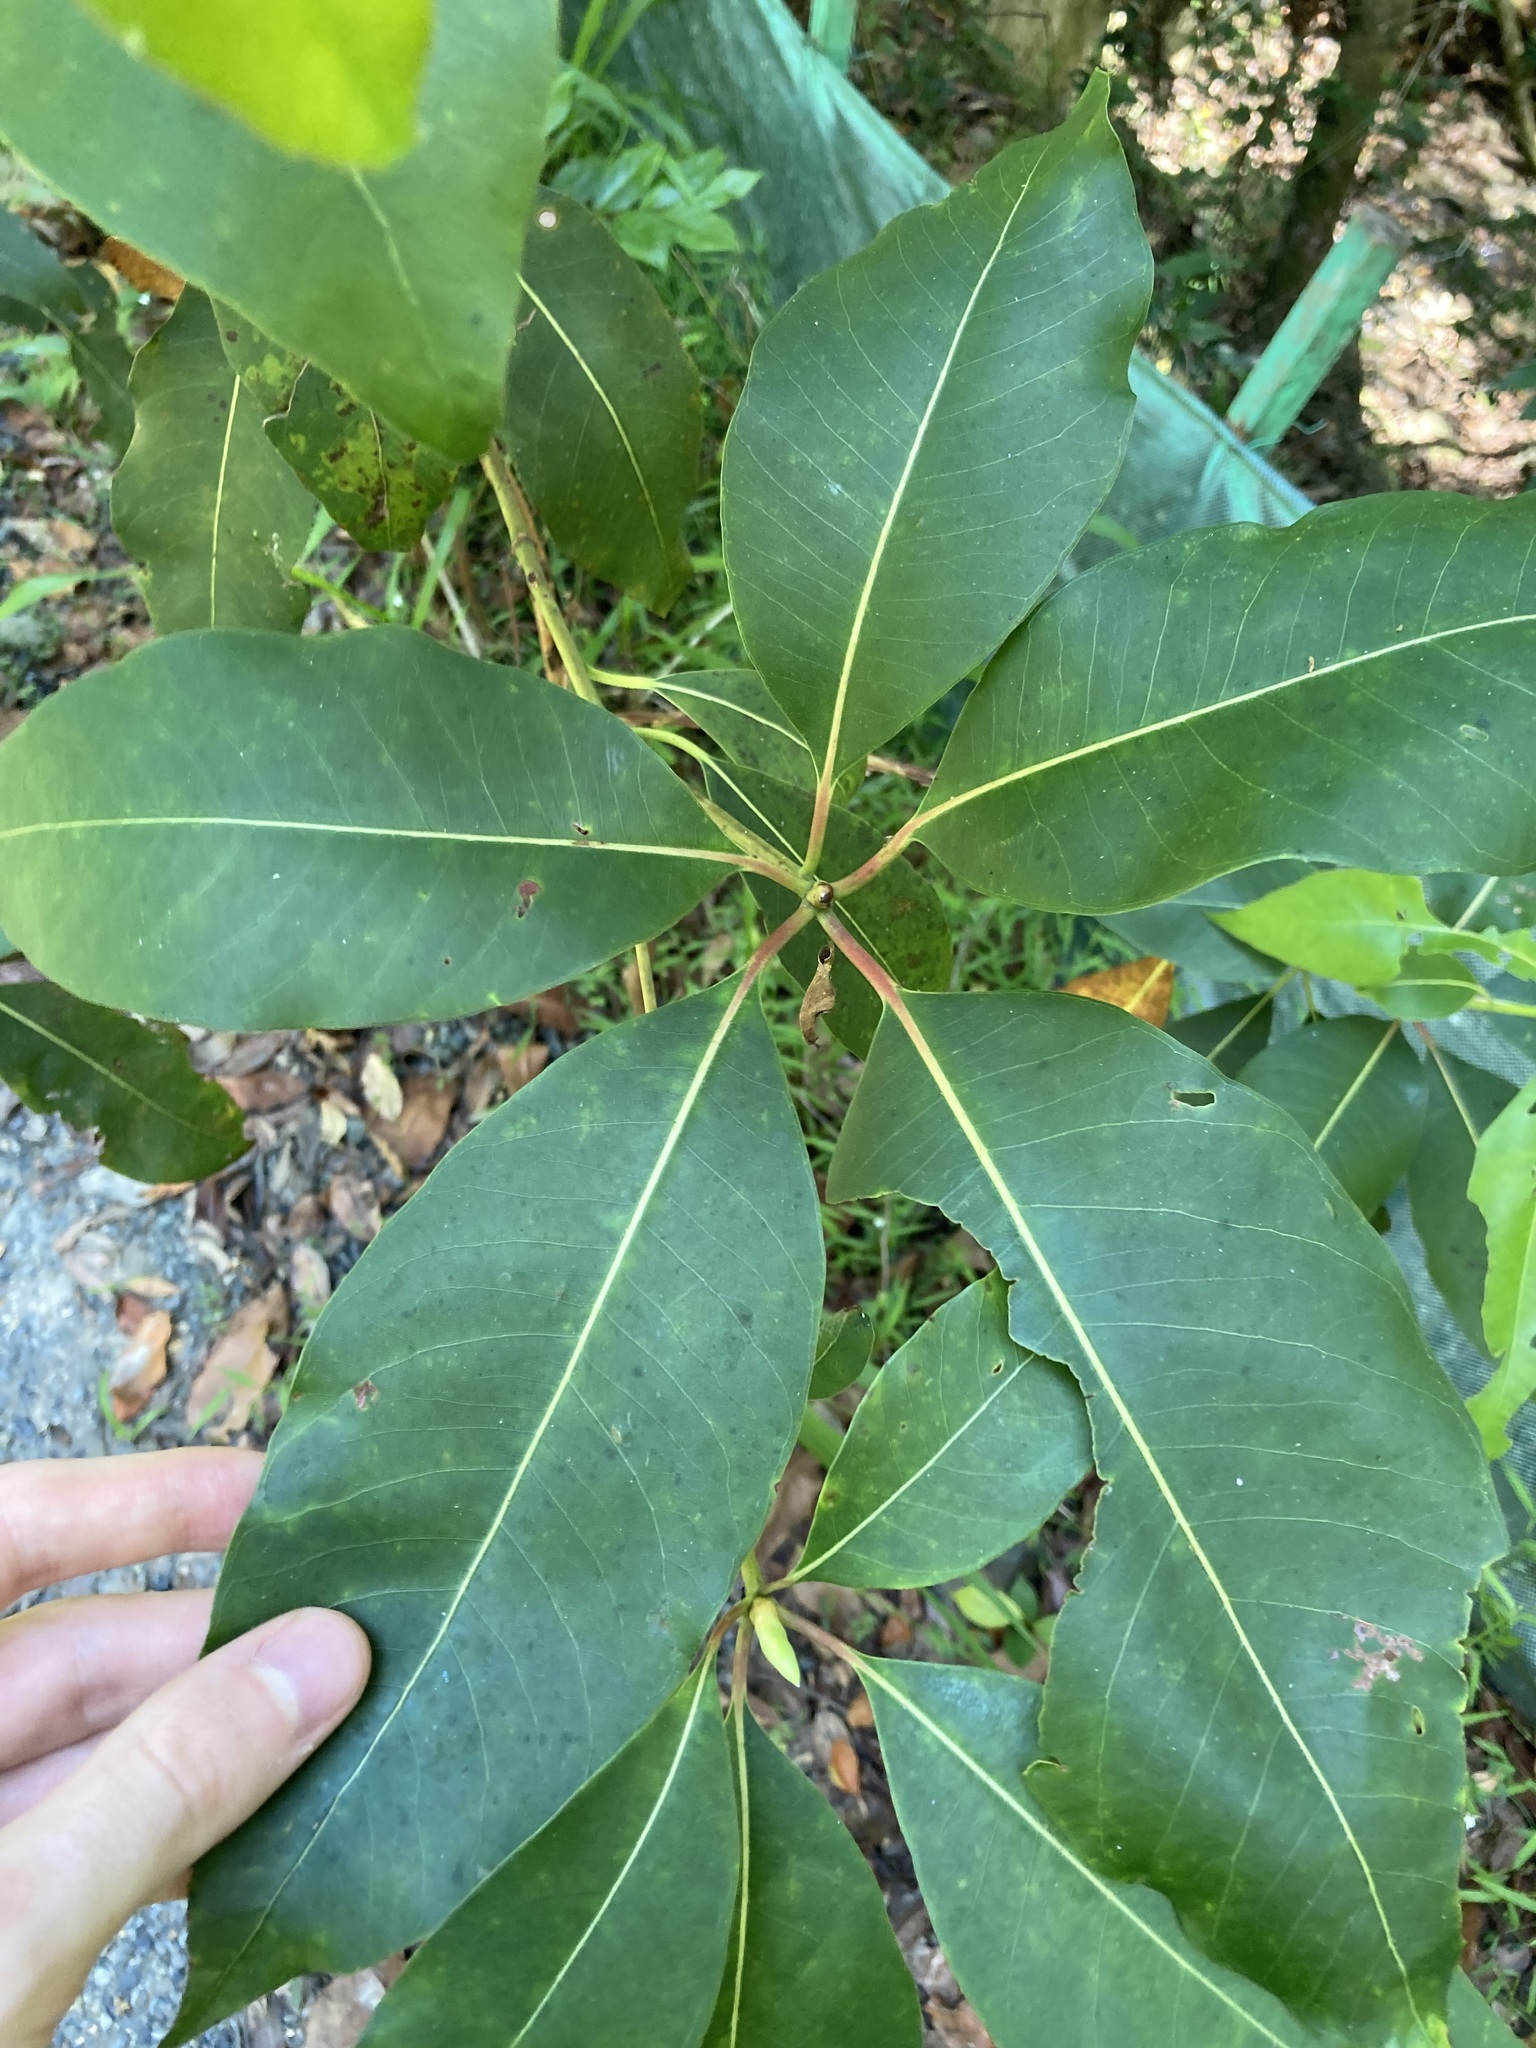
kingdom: Plantae
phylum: Tracheophyta
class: Magnoliopsida
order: Myrtales
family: Myrtaceae
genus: Lophostemon
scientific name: Lophostemon confertus
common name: Brisbane box
